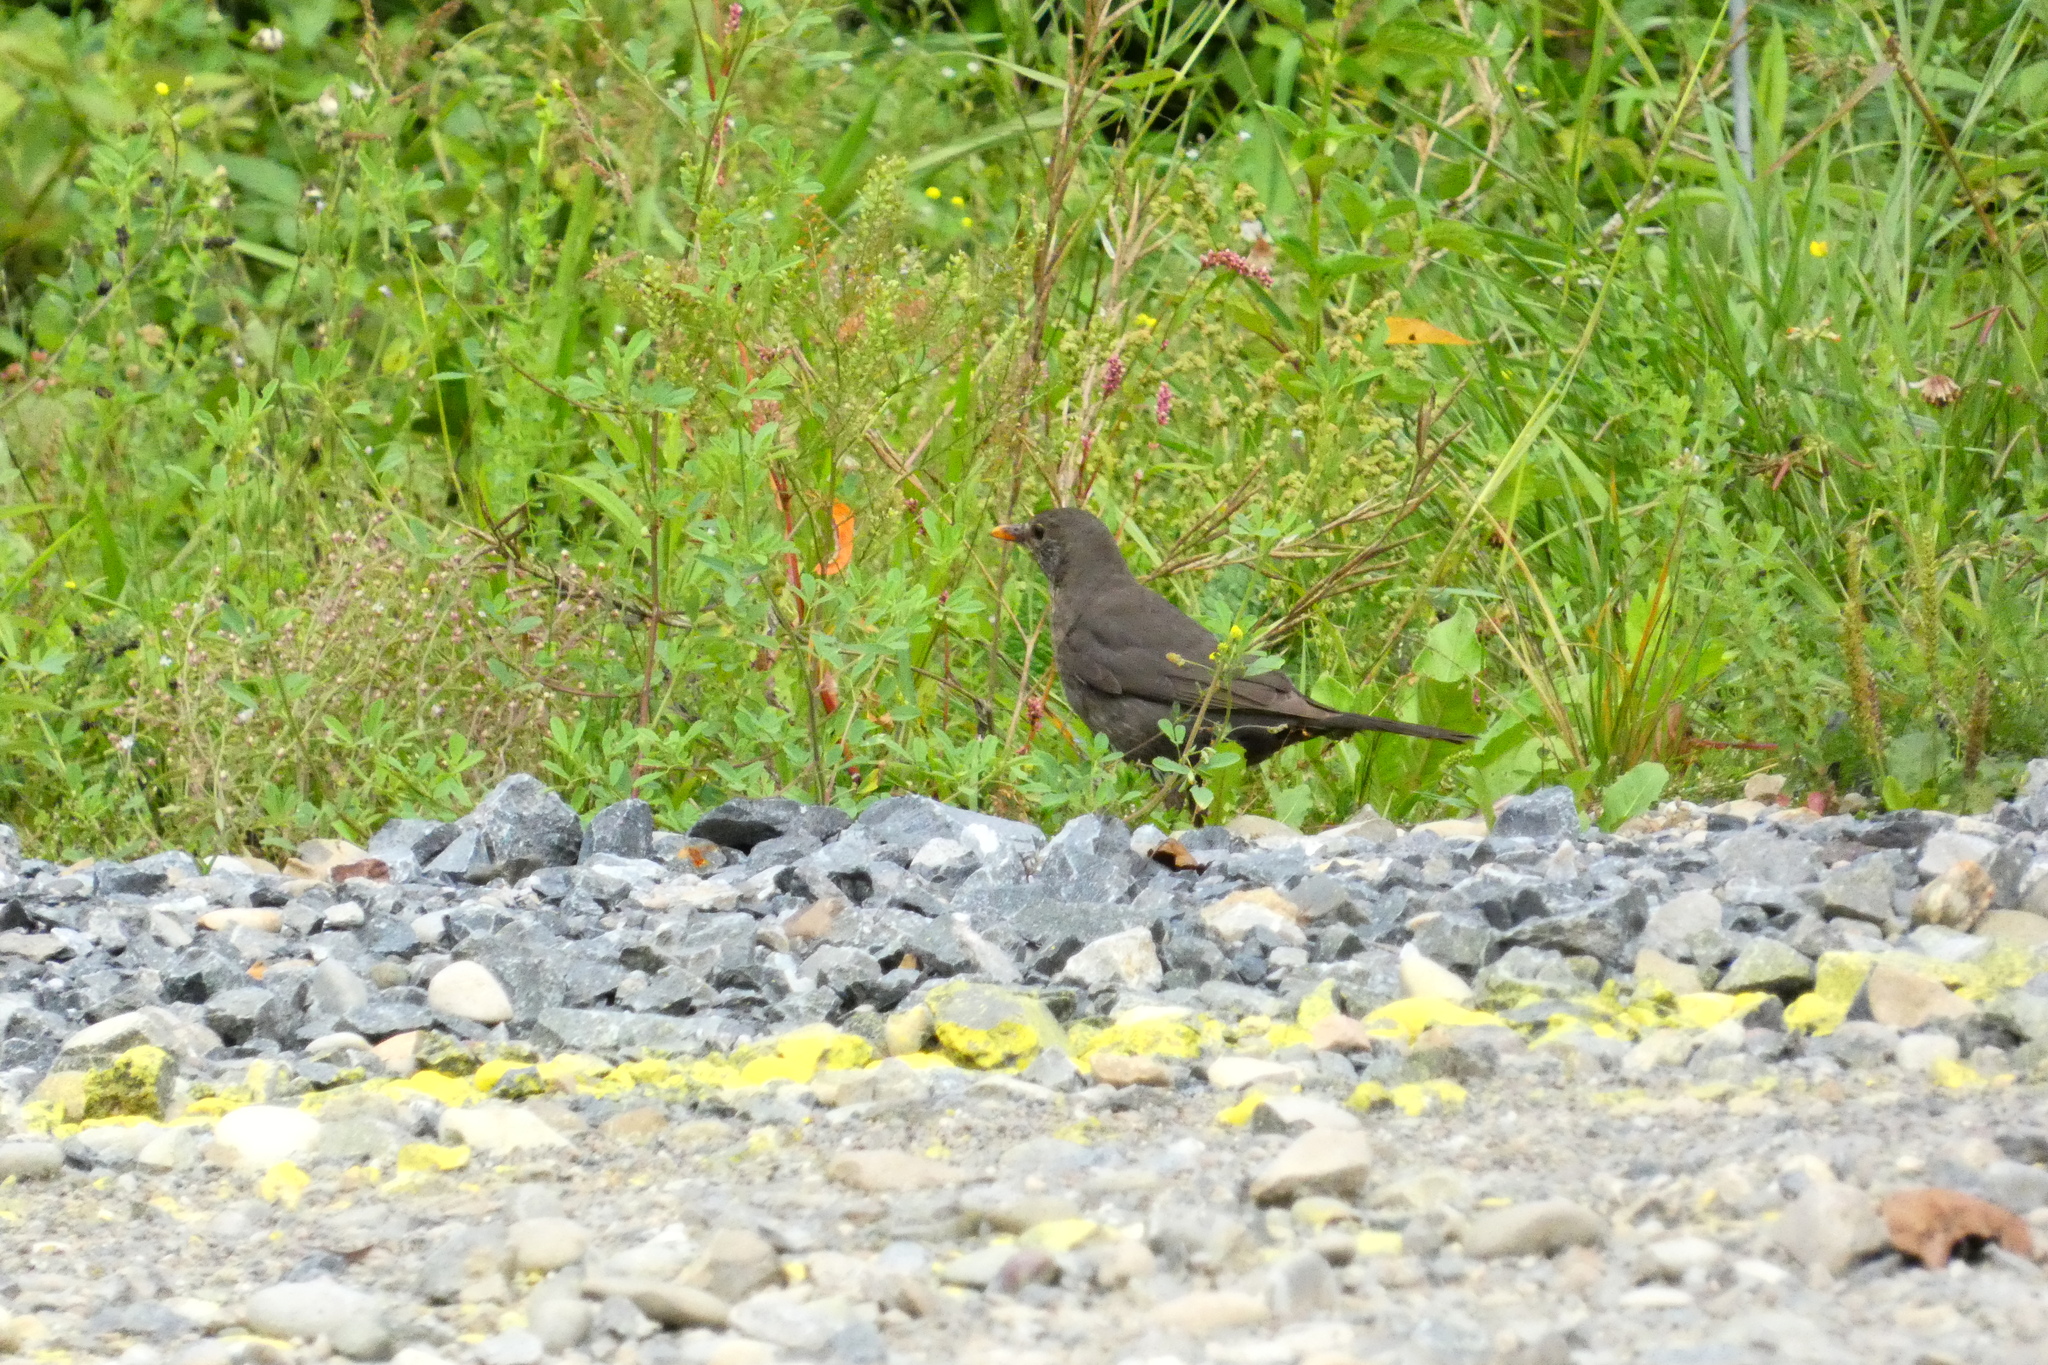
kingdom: Animalia
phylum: Chordata
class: Aves
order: Passeriformes
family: Turdidae
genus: Turdus
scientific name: Turdus merula
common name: Common blackbird
